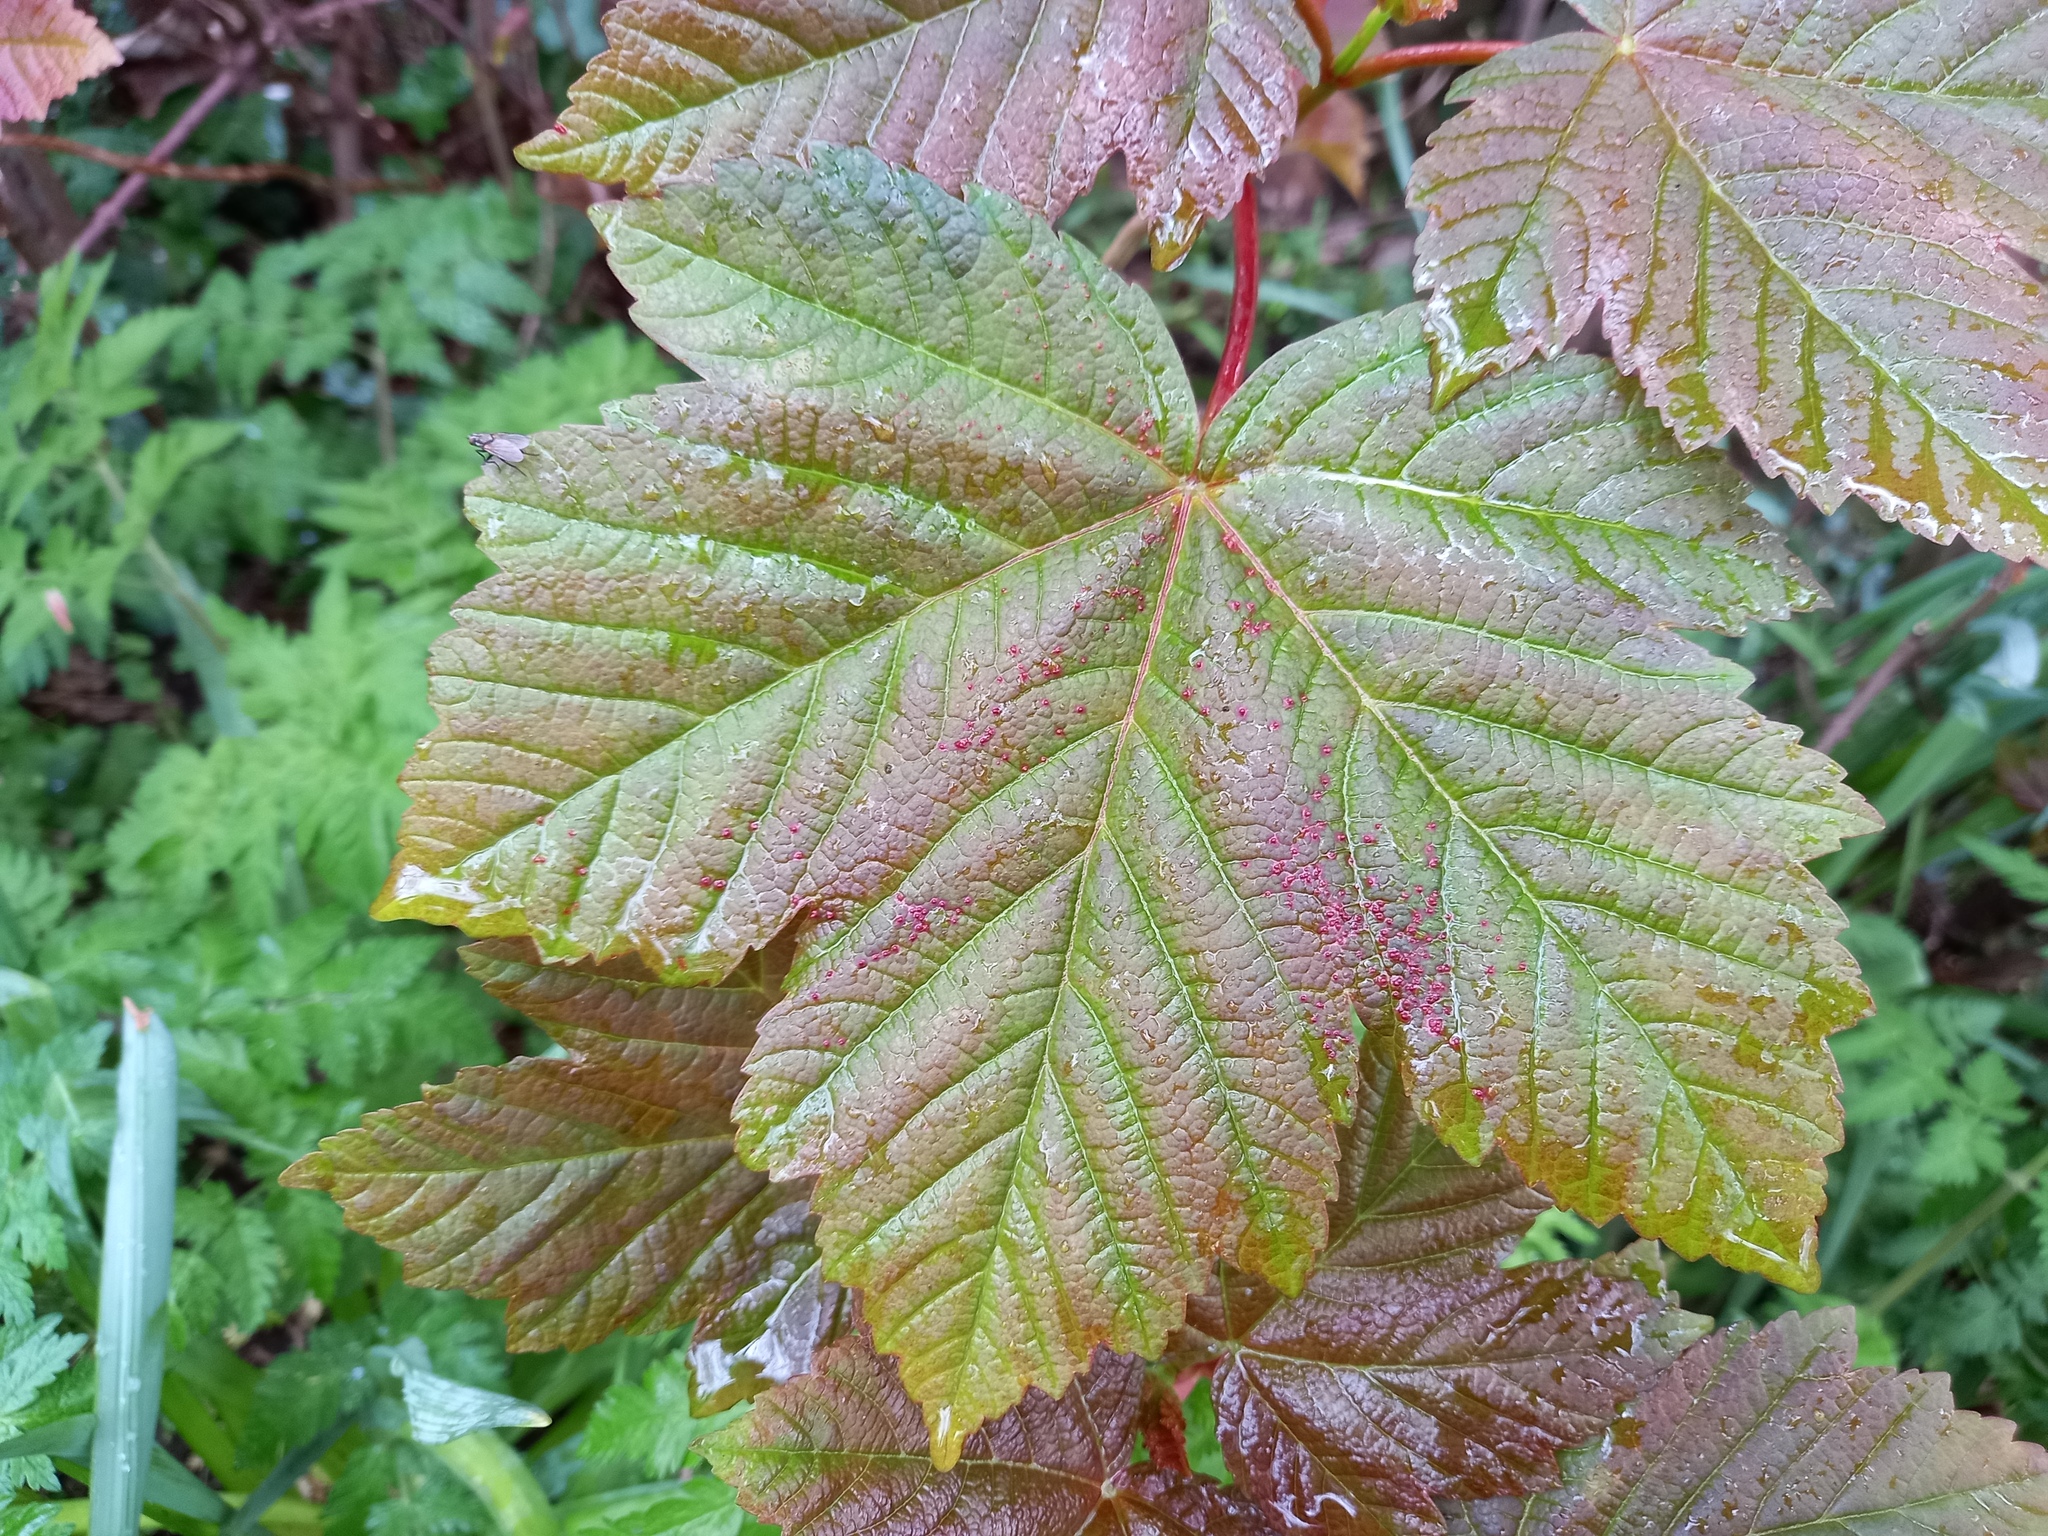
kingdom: Plantae
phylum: Tracheophyta
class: Magnoliopsida
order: Sapindales
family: Sapindaceae
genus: Acer
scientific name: Acer pseudoplatanus
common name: Sycamore
